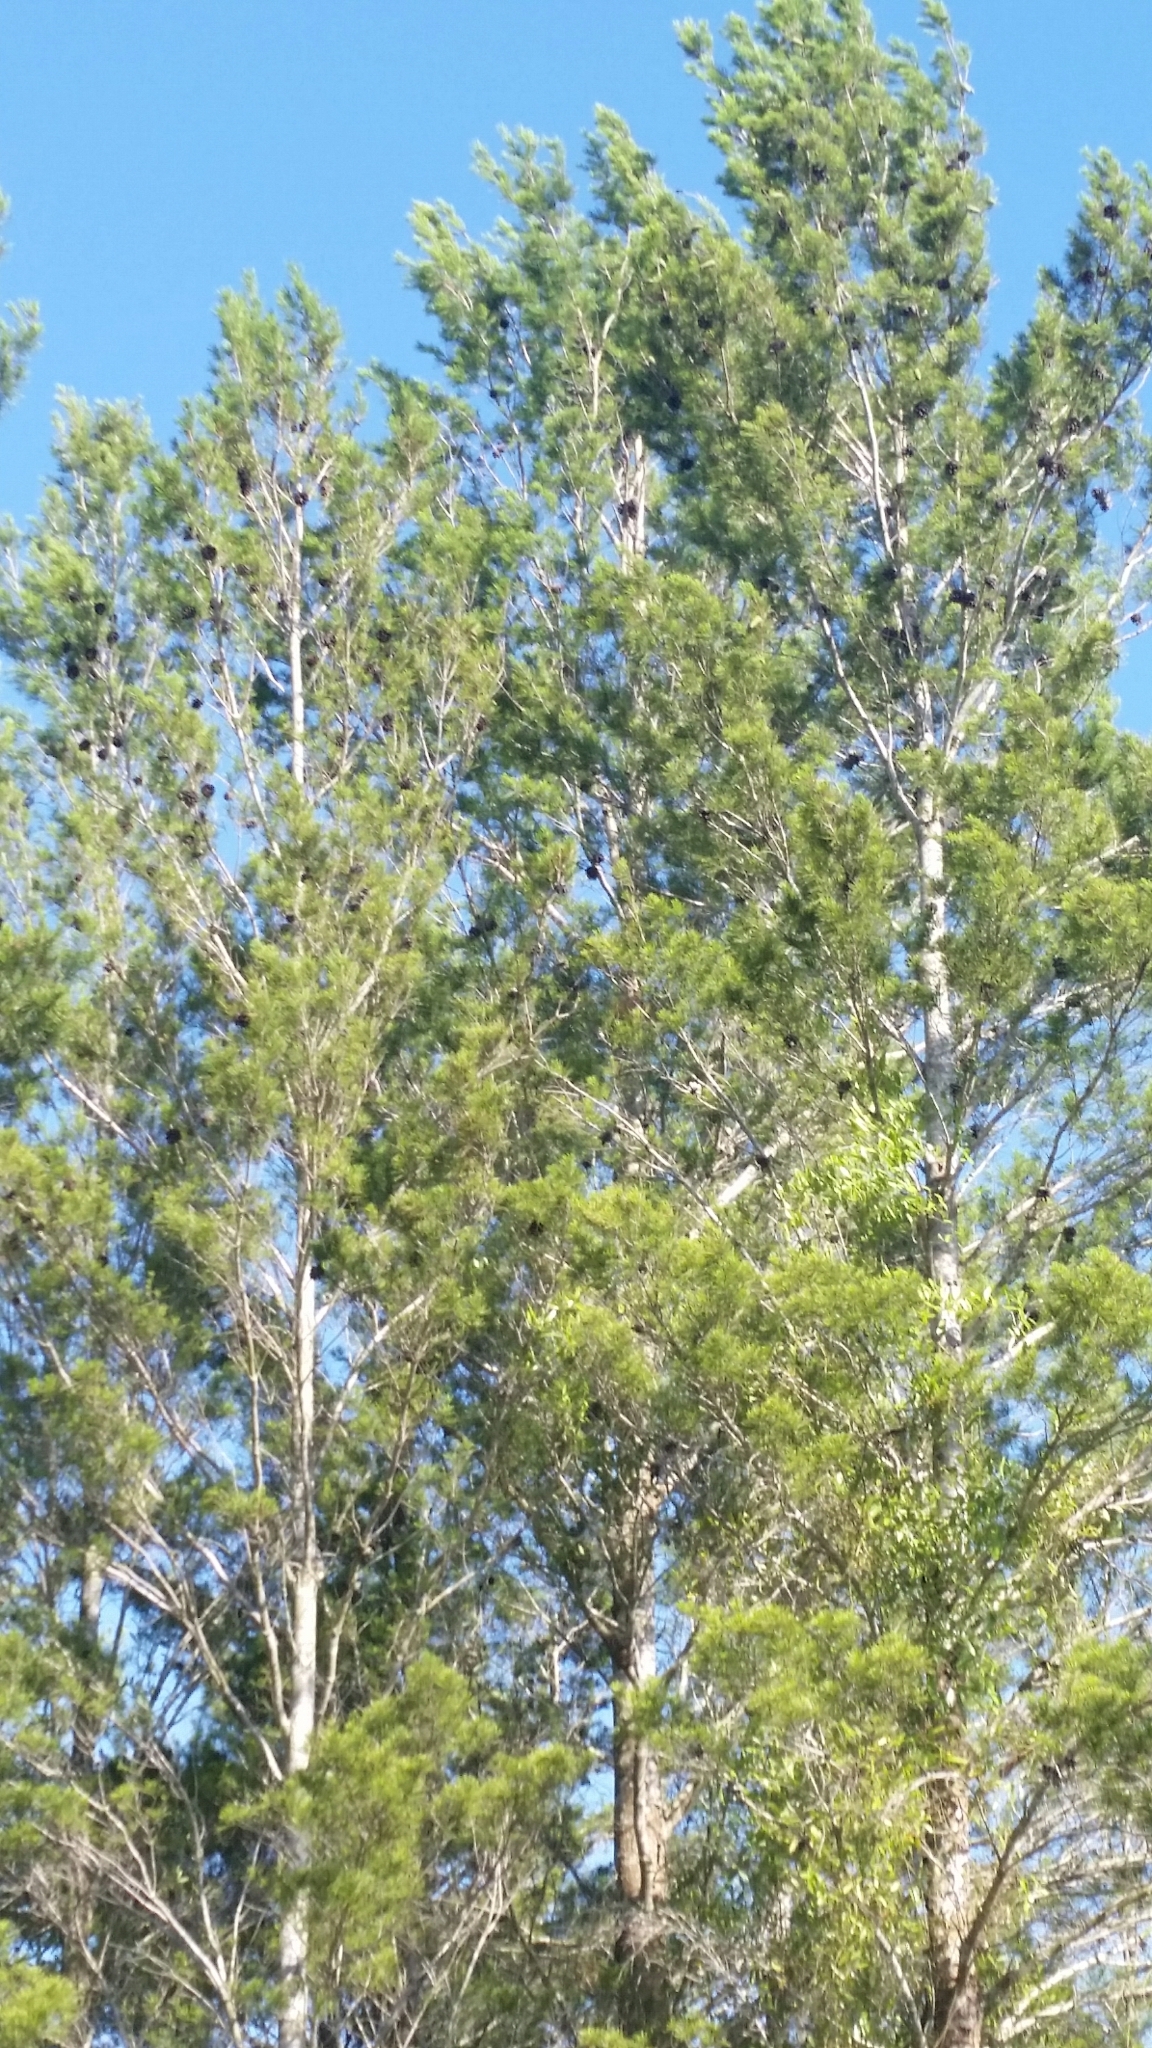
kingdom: Plantae
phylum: Tracheophyta
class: Pinopsida
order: Pinales
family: Pinaceae
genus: Pinus
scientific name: Pinus clausa
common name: Sand pine
